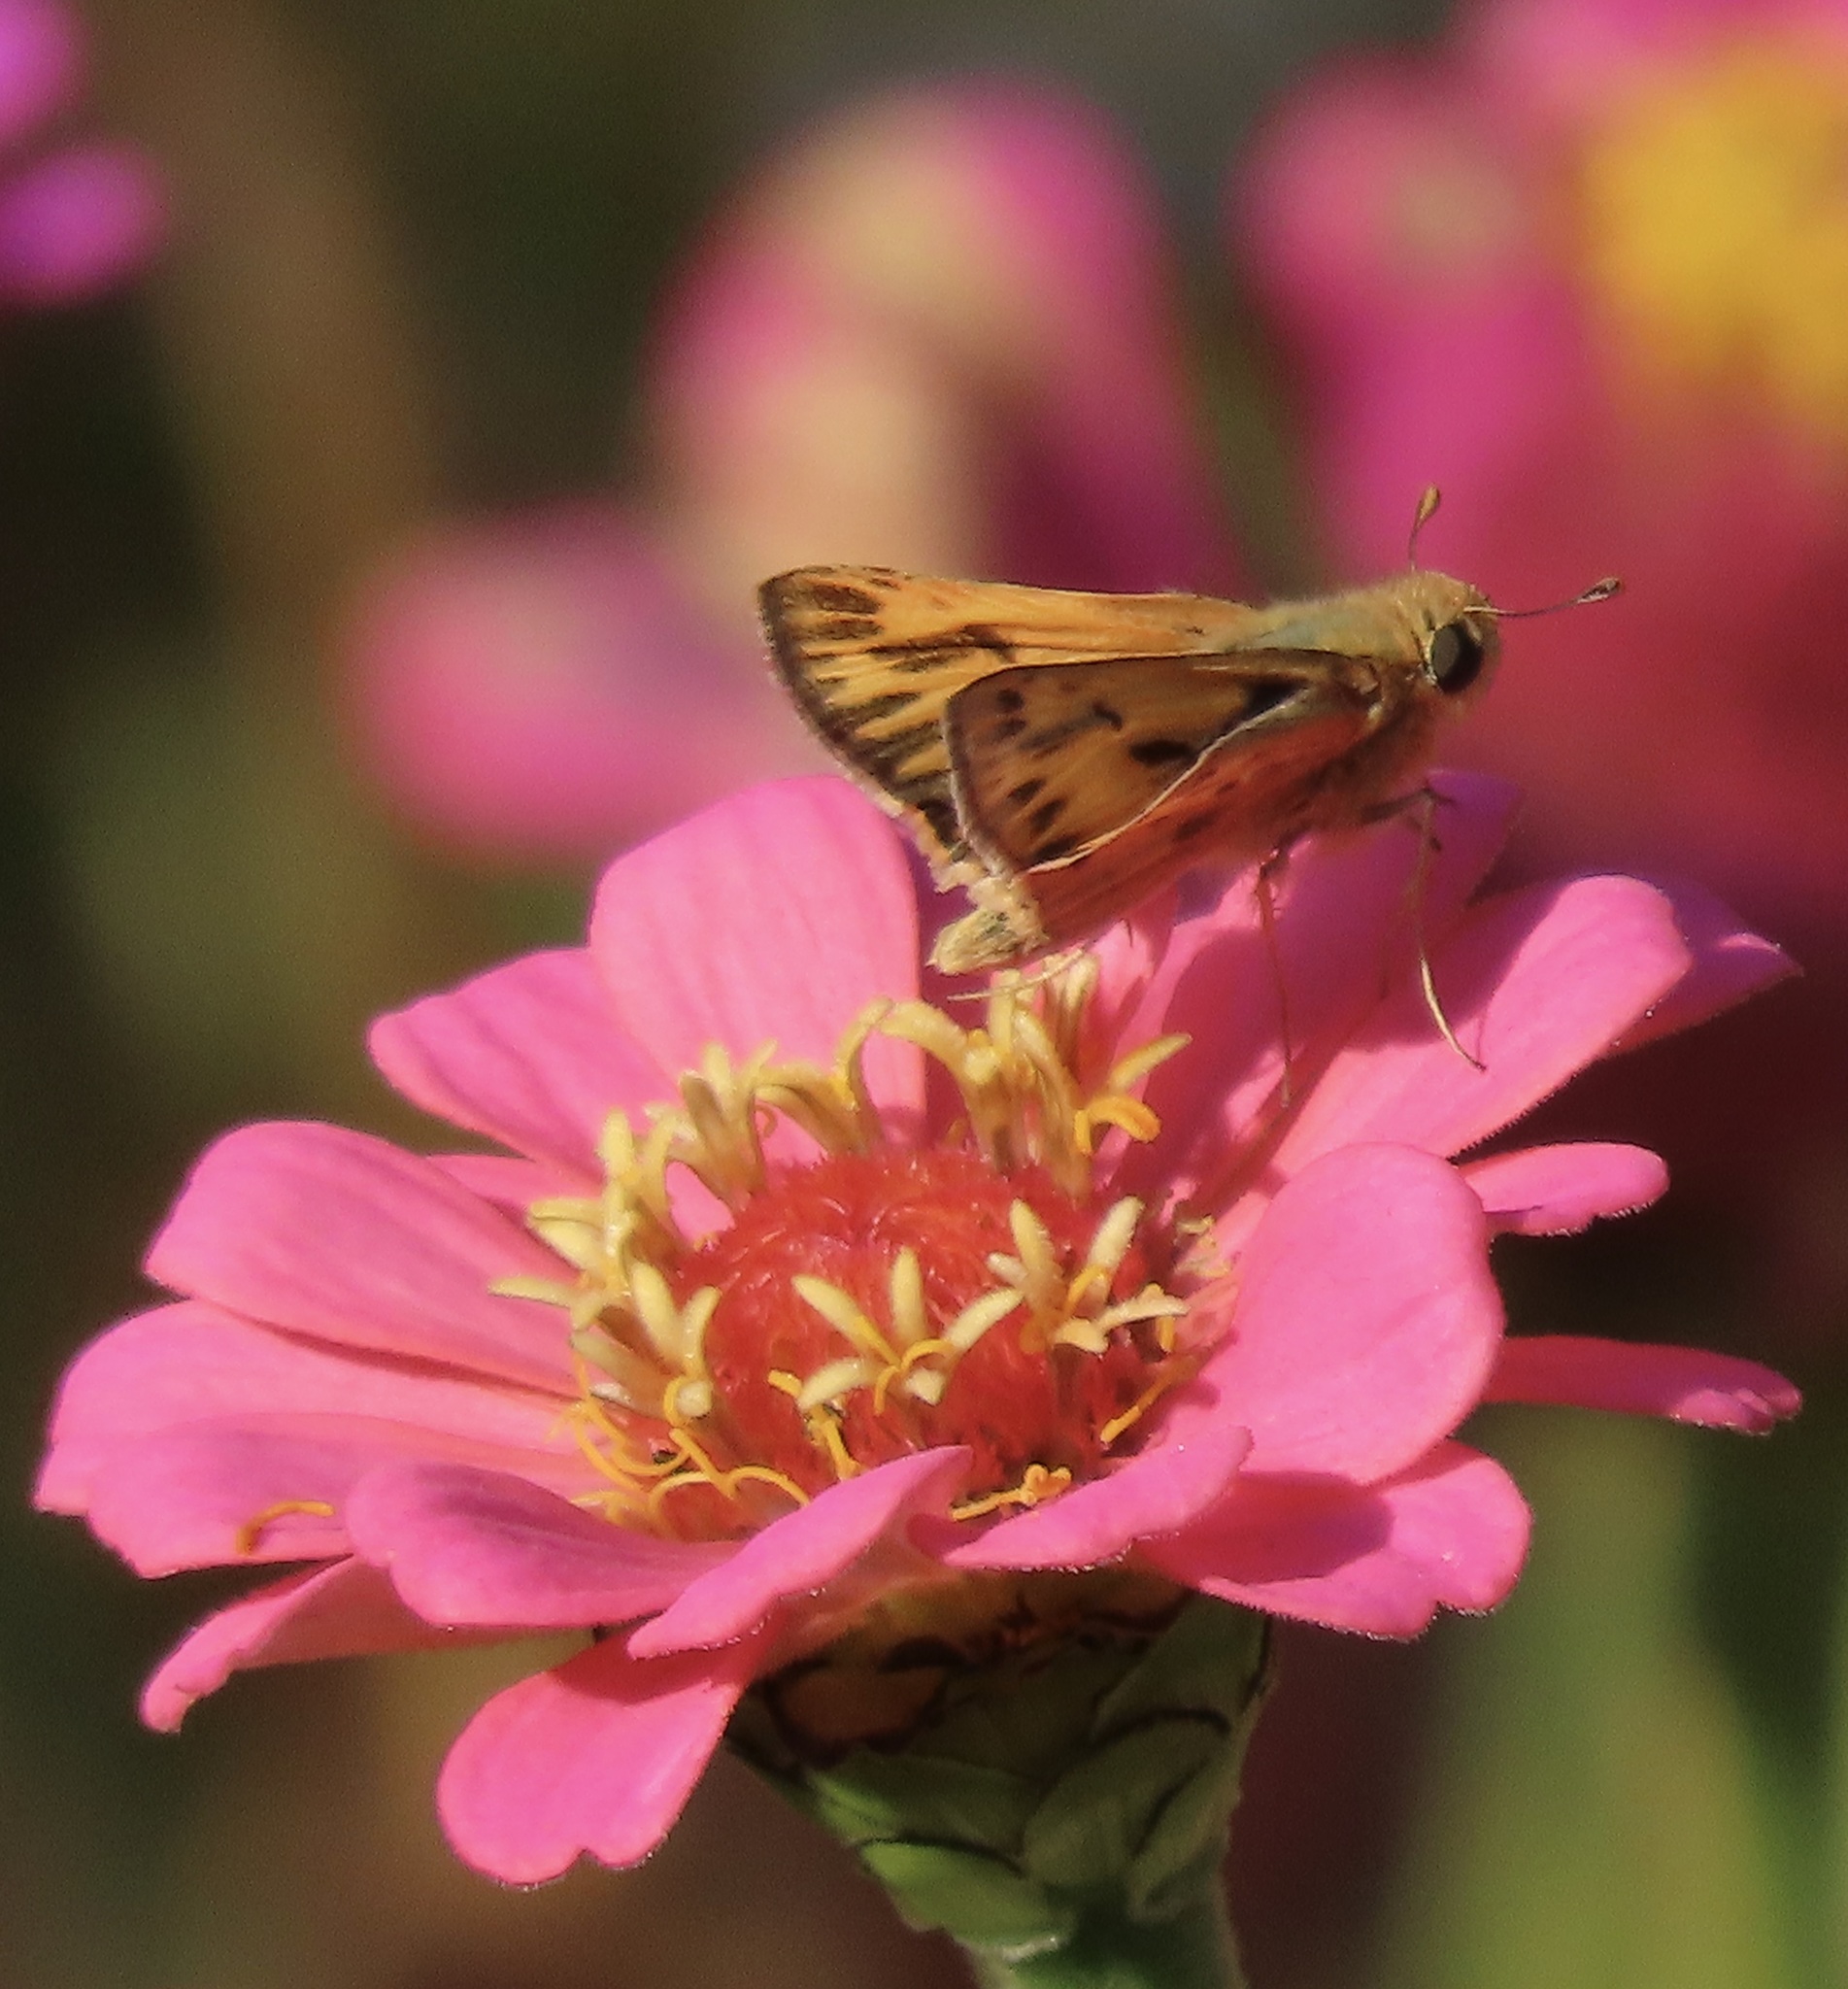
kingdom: Animalia
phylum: Arthropoda
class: Insecta
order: Lepidoptera
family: Hesperiidae
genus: Hylephila
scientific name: Hylephila phyleus
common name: Fiery skipper
